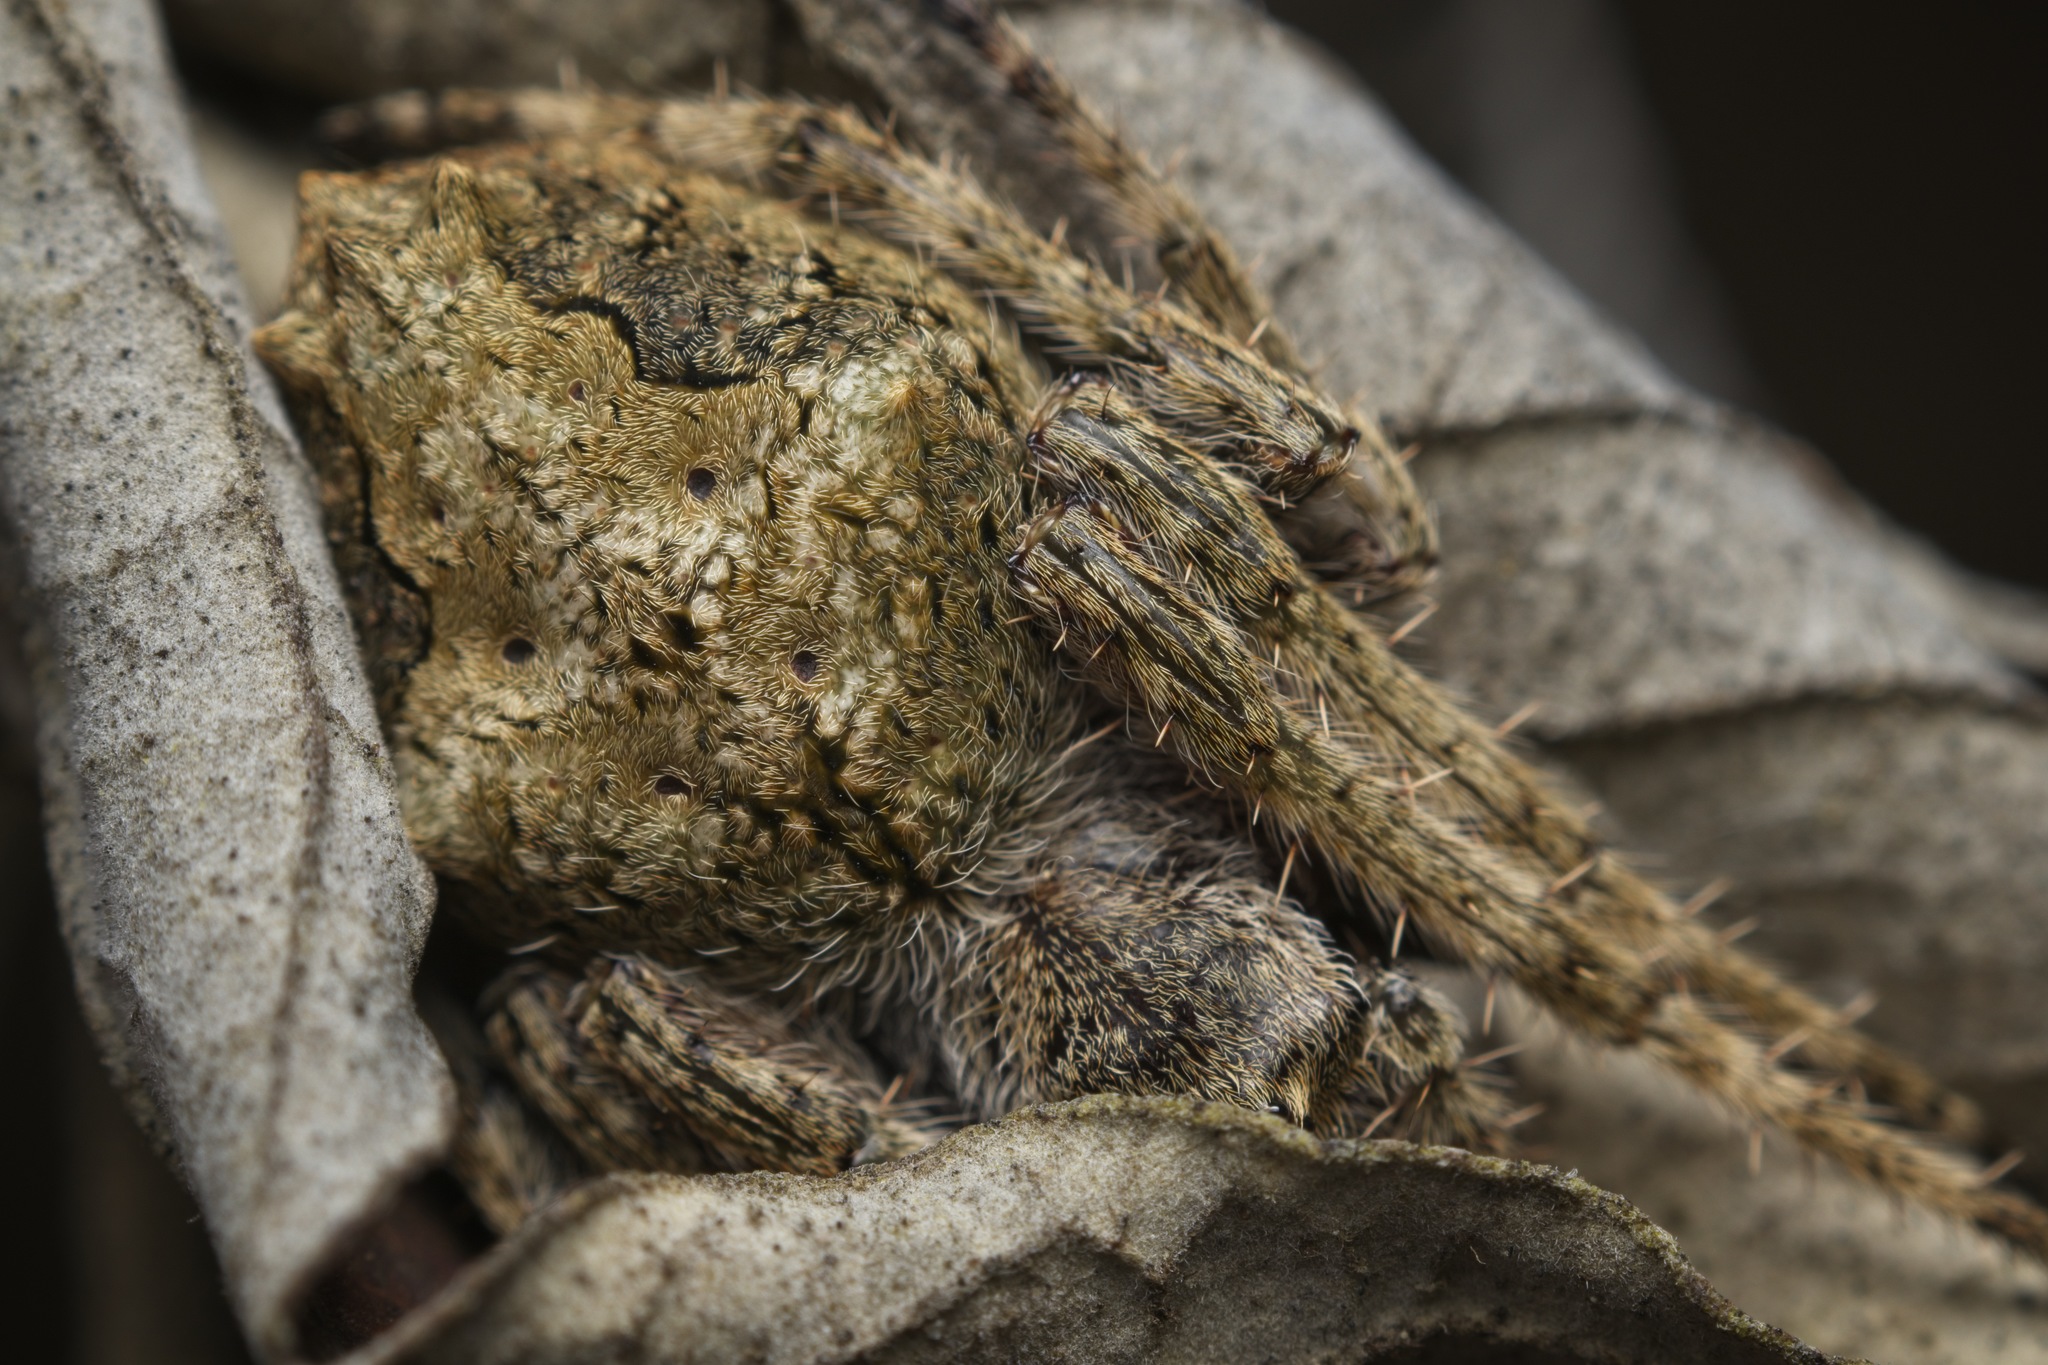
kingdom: Animalia
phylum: Arthropoda
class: Arachnida
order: Araneae
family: Araneidae
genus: Eriophora
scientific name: Eriophora pustulosa
